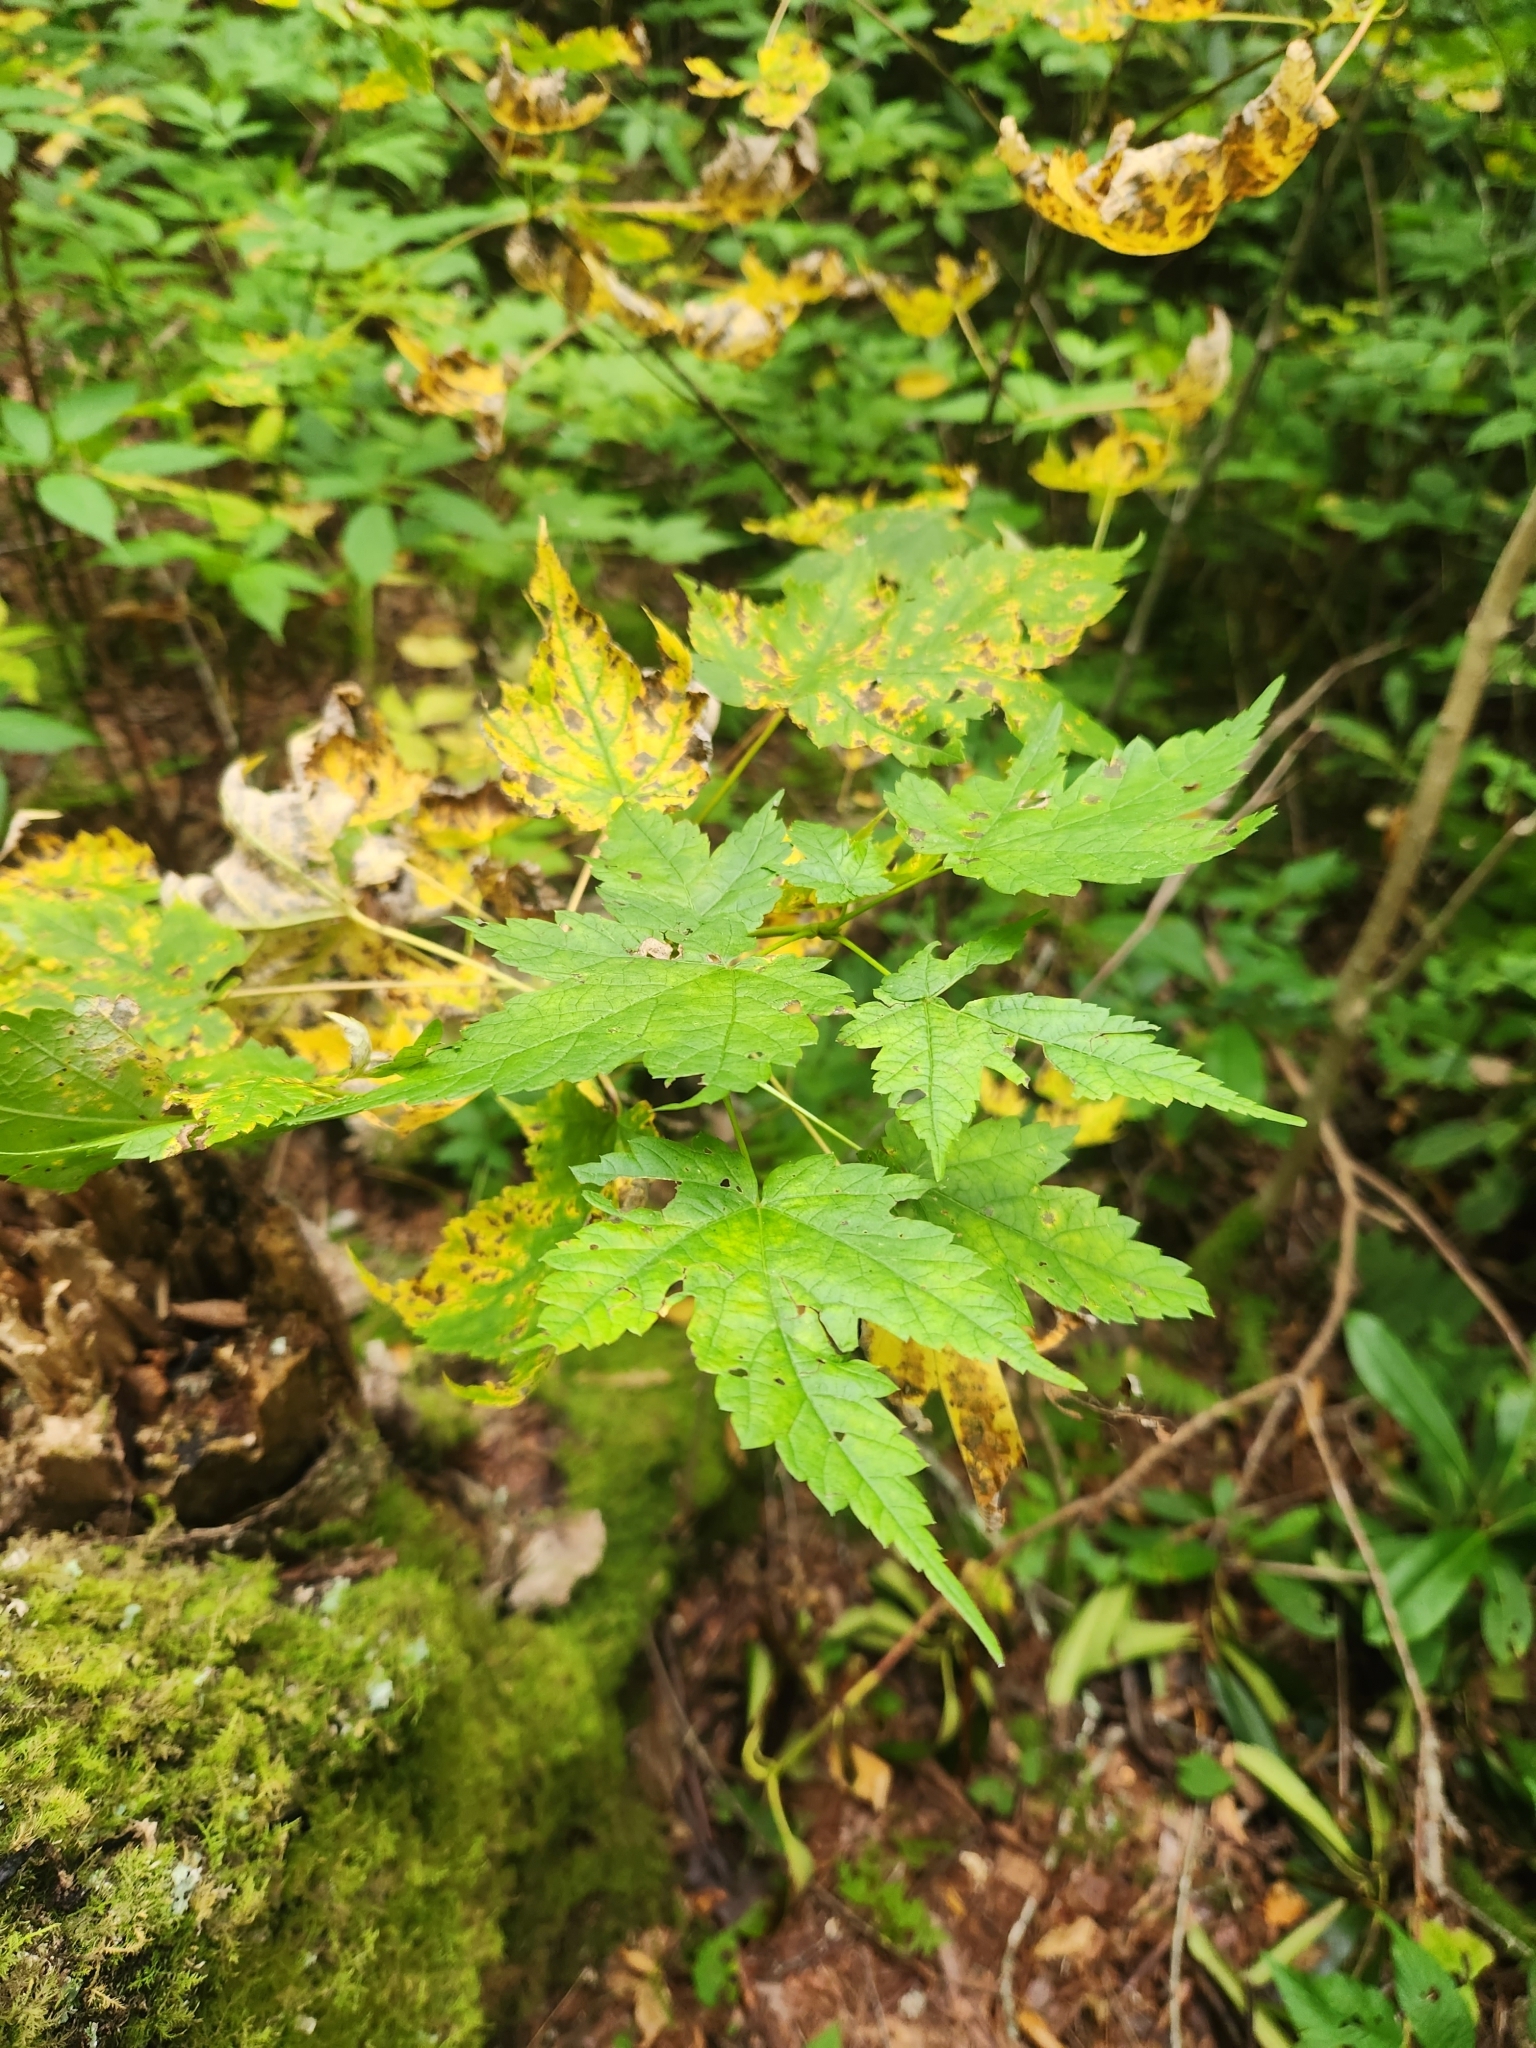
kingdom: Plantae
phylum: Tracheophyta
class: Magnoliopsida
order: Sapindales
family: Sapindaceae
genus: Acer
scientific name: Acer spicatum
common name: Mountain maple
